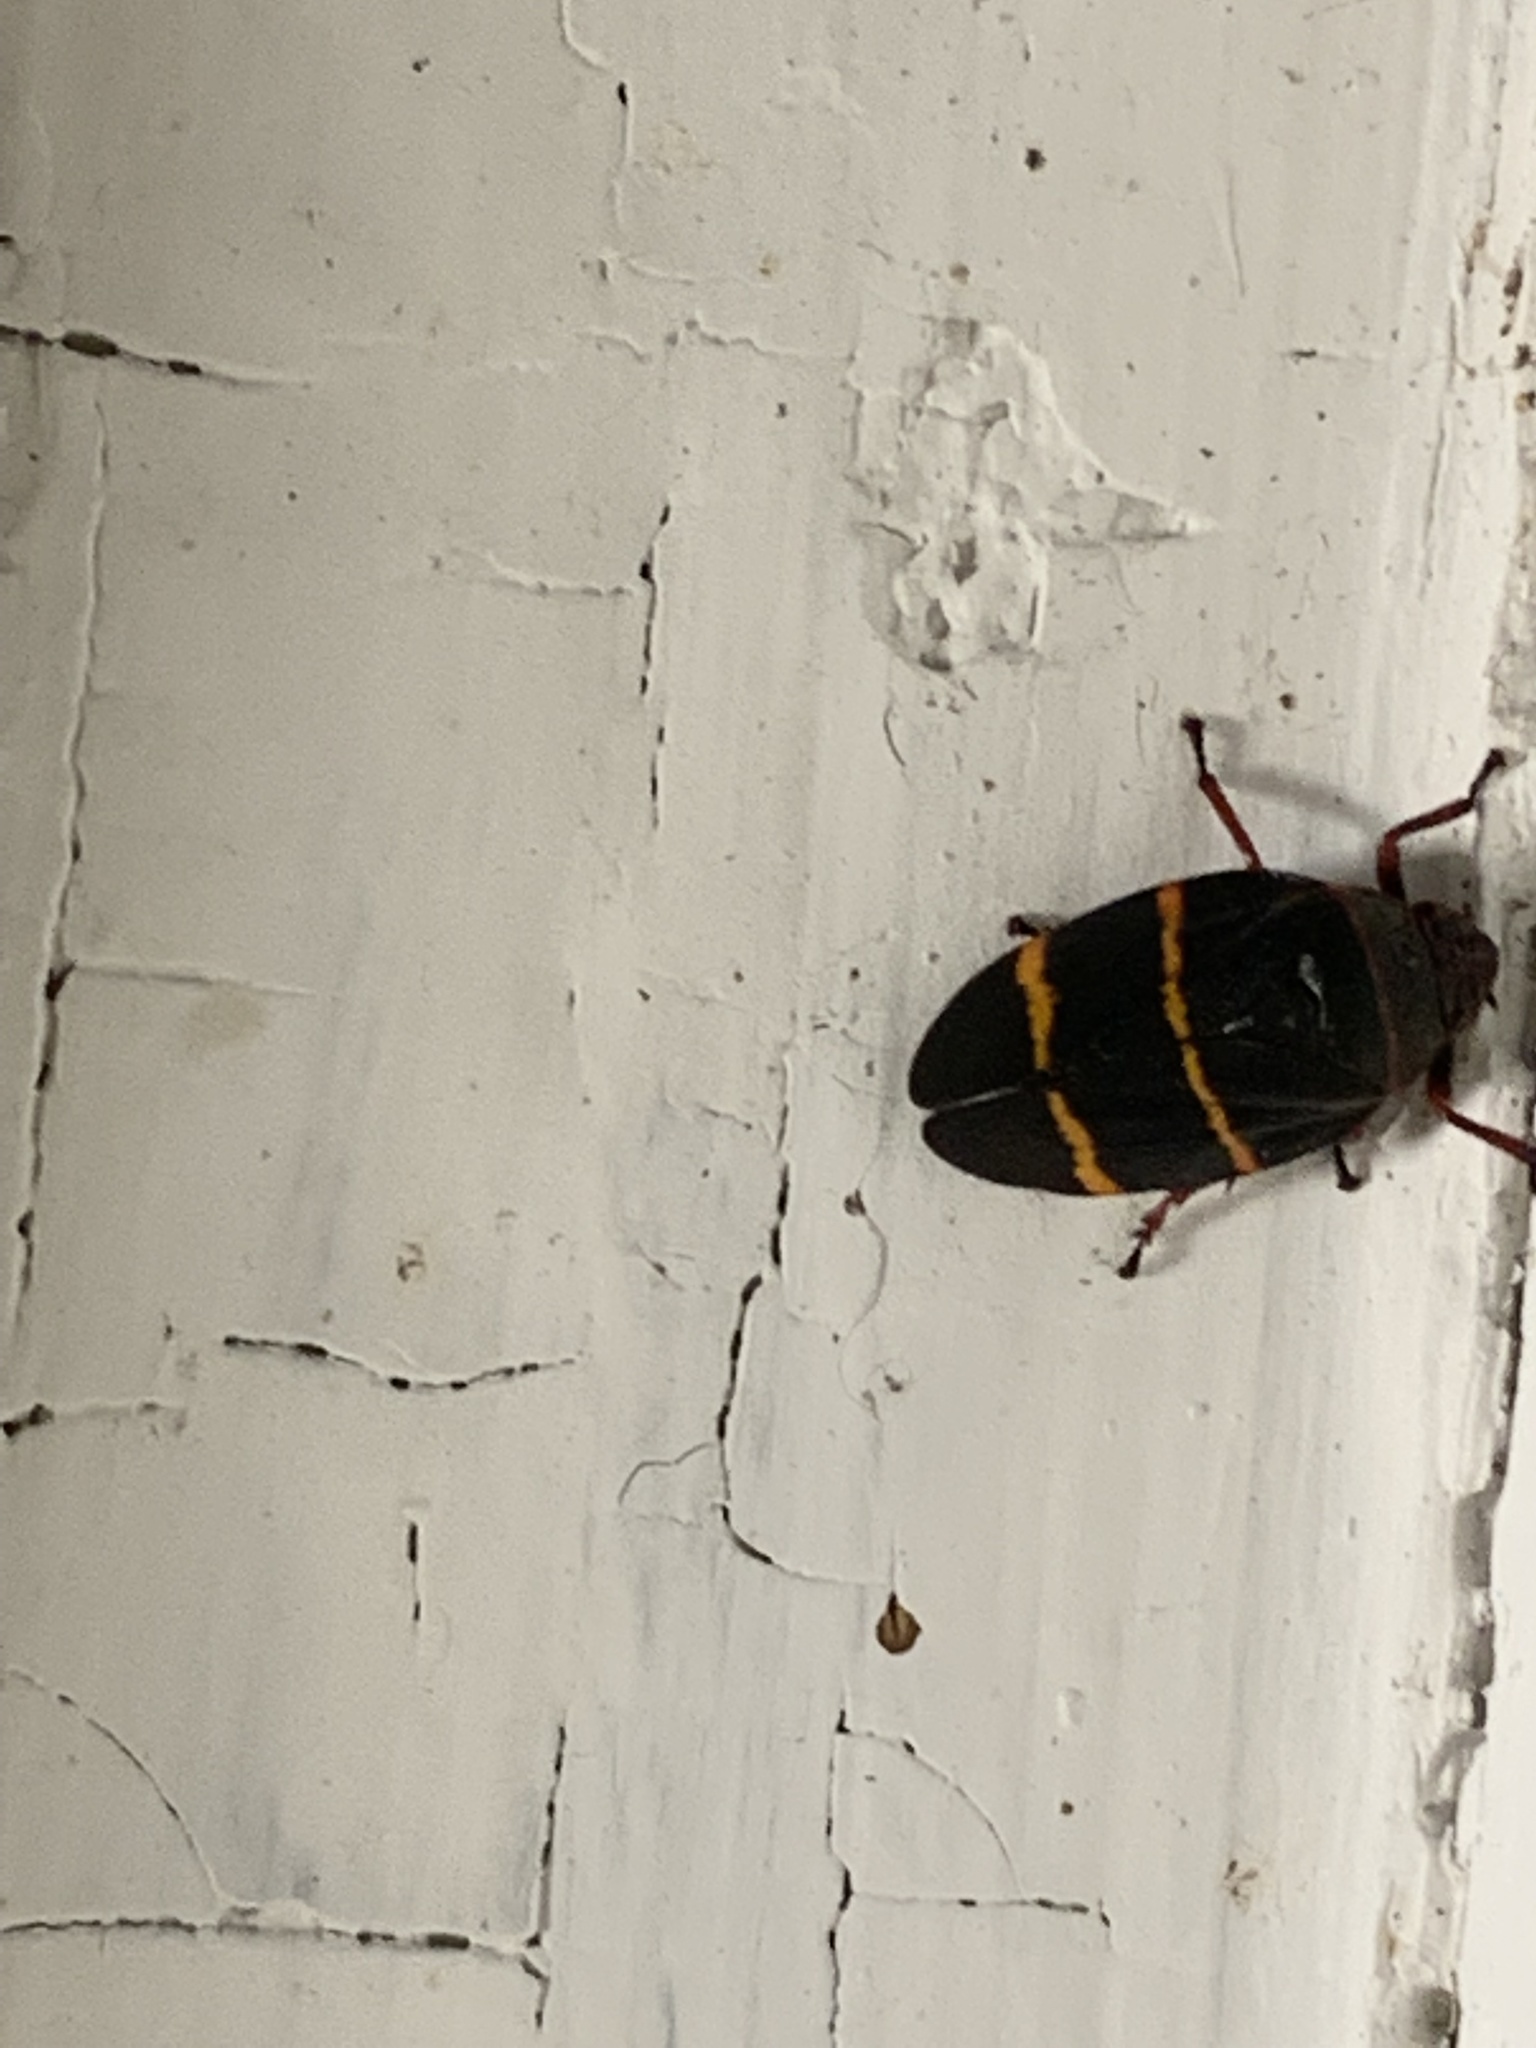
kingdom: Animalia
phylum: Arthropoda
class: Insecta
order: Hemiptera
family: Cercopidae
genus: Prosapia
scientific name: Prosapia bicincta
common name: Twolined spittlebug
